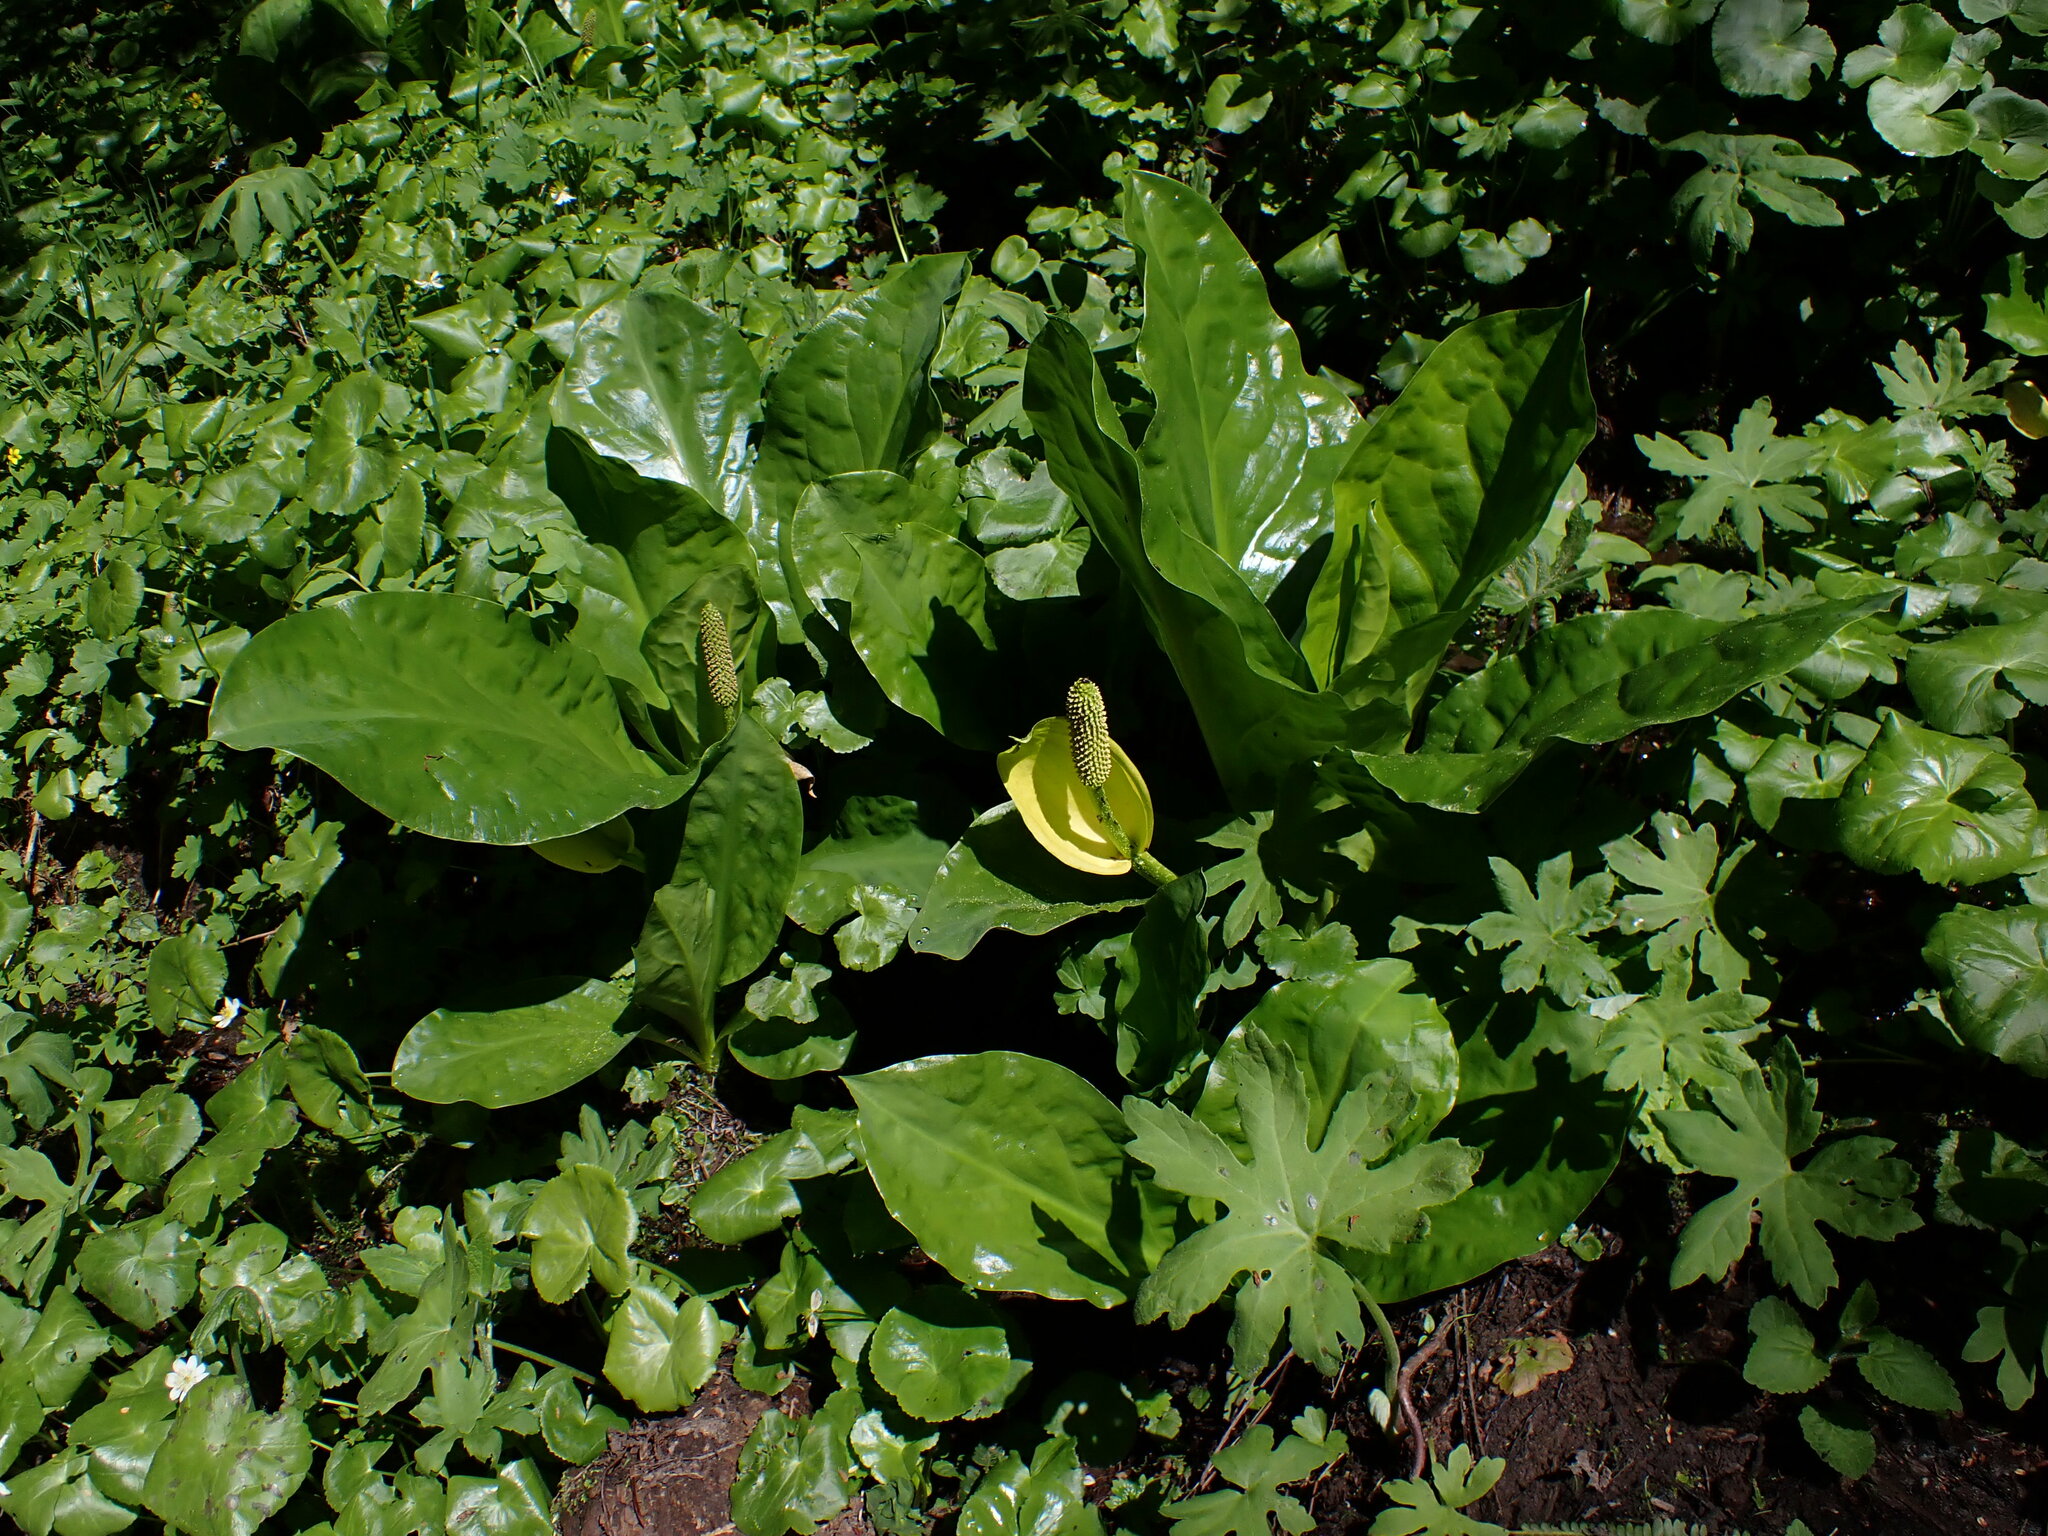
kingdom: Plantae
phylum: Tracheophyta
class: Liliopsida
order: Alismatales
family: Araceae
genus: Lysichiton
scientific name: Lysichiton americanus
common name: American skunk cabbage
